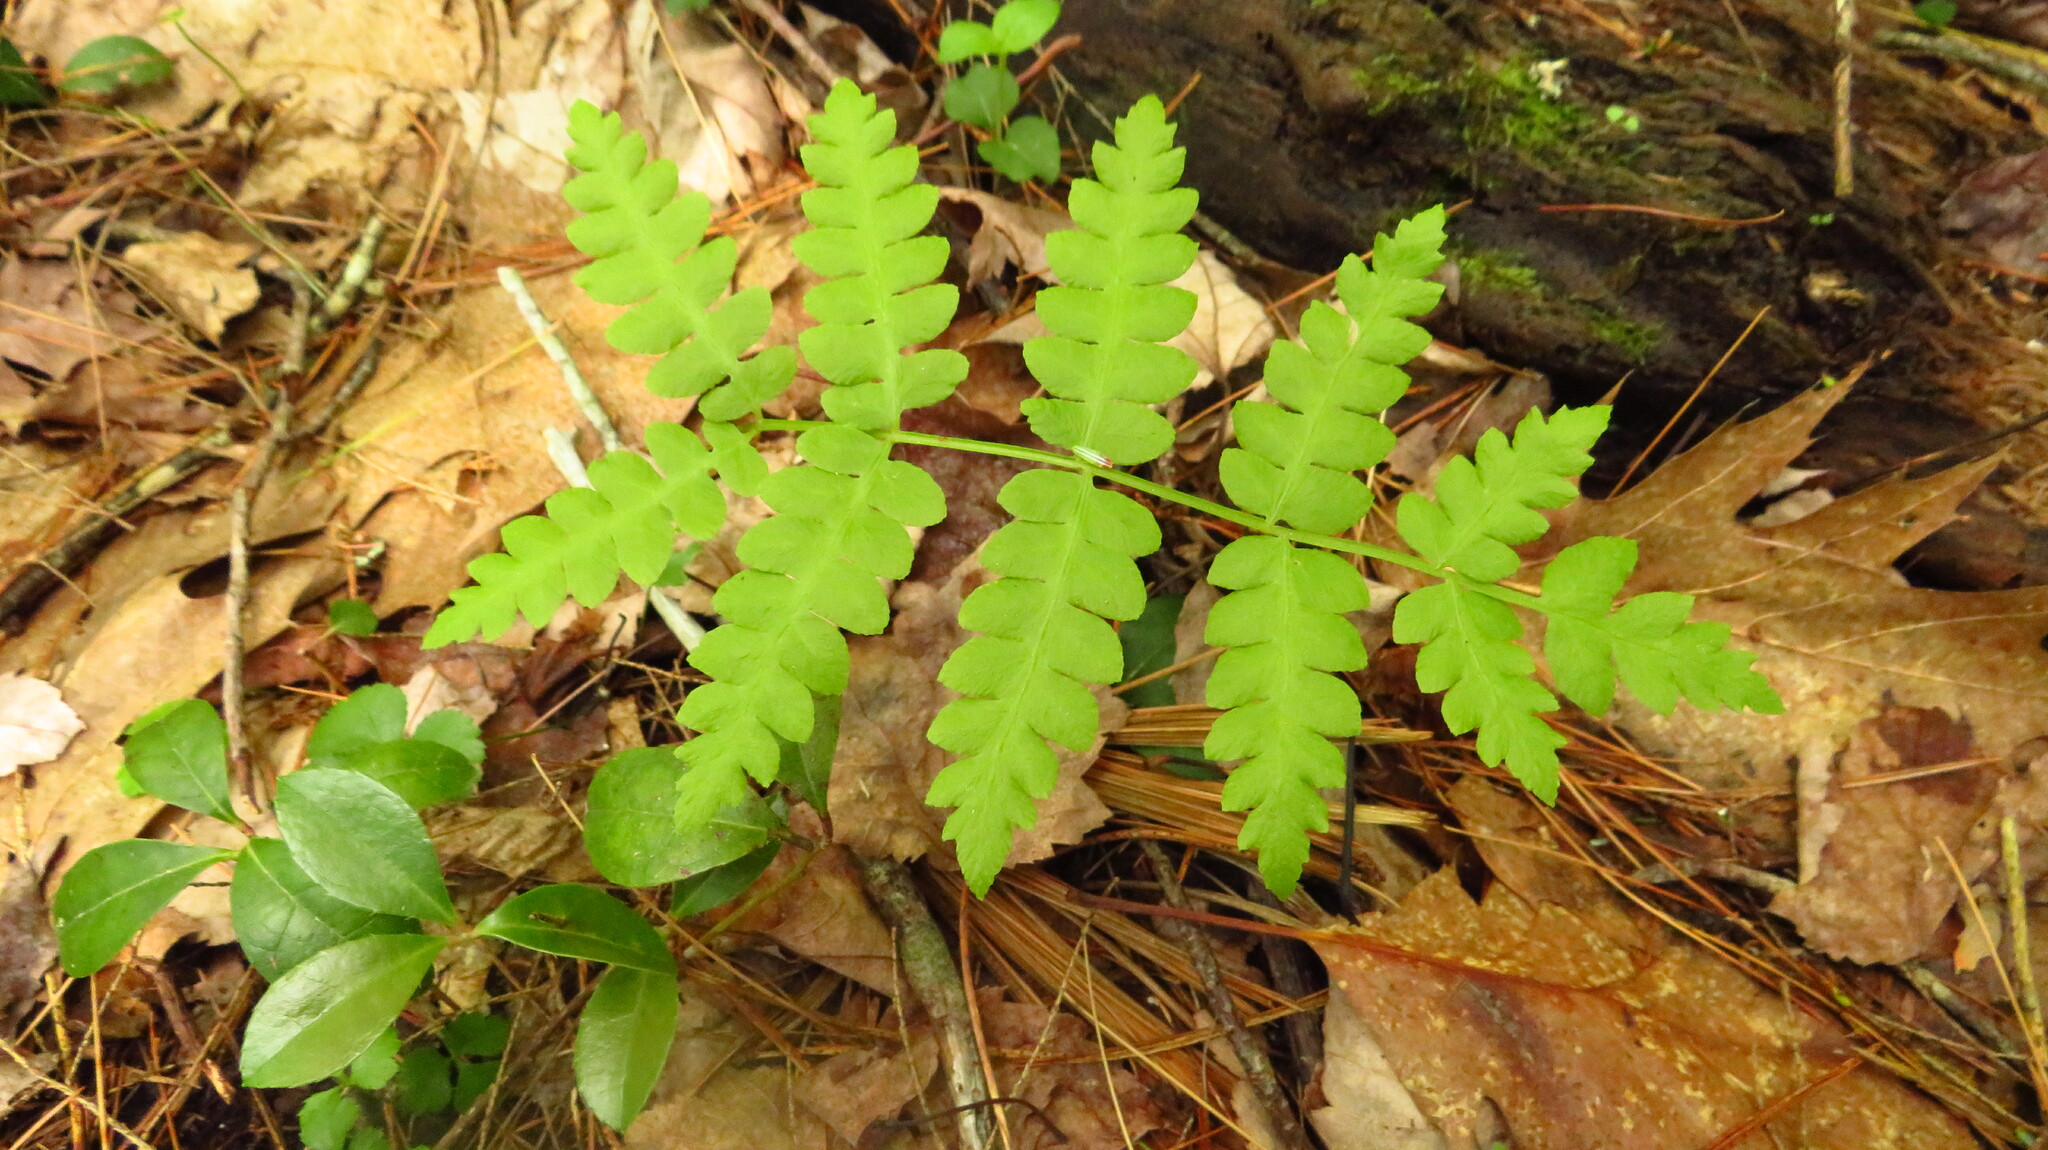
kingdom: Plantae
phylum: Tracheophyta
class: Polypodiopsida
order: Osmundales
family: Osmundaceae
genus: Osmundastrum
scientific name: Osmundastrum cinnamomeum
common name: Cinnamon fern
